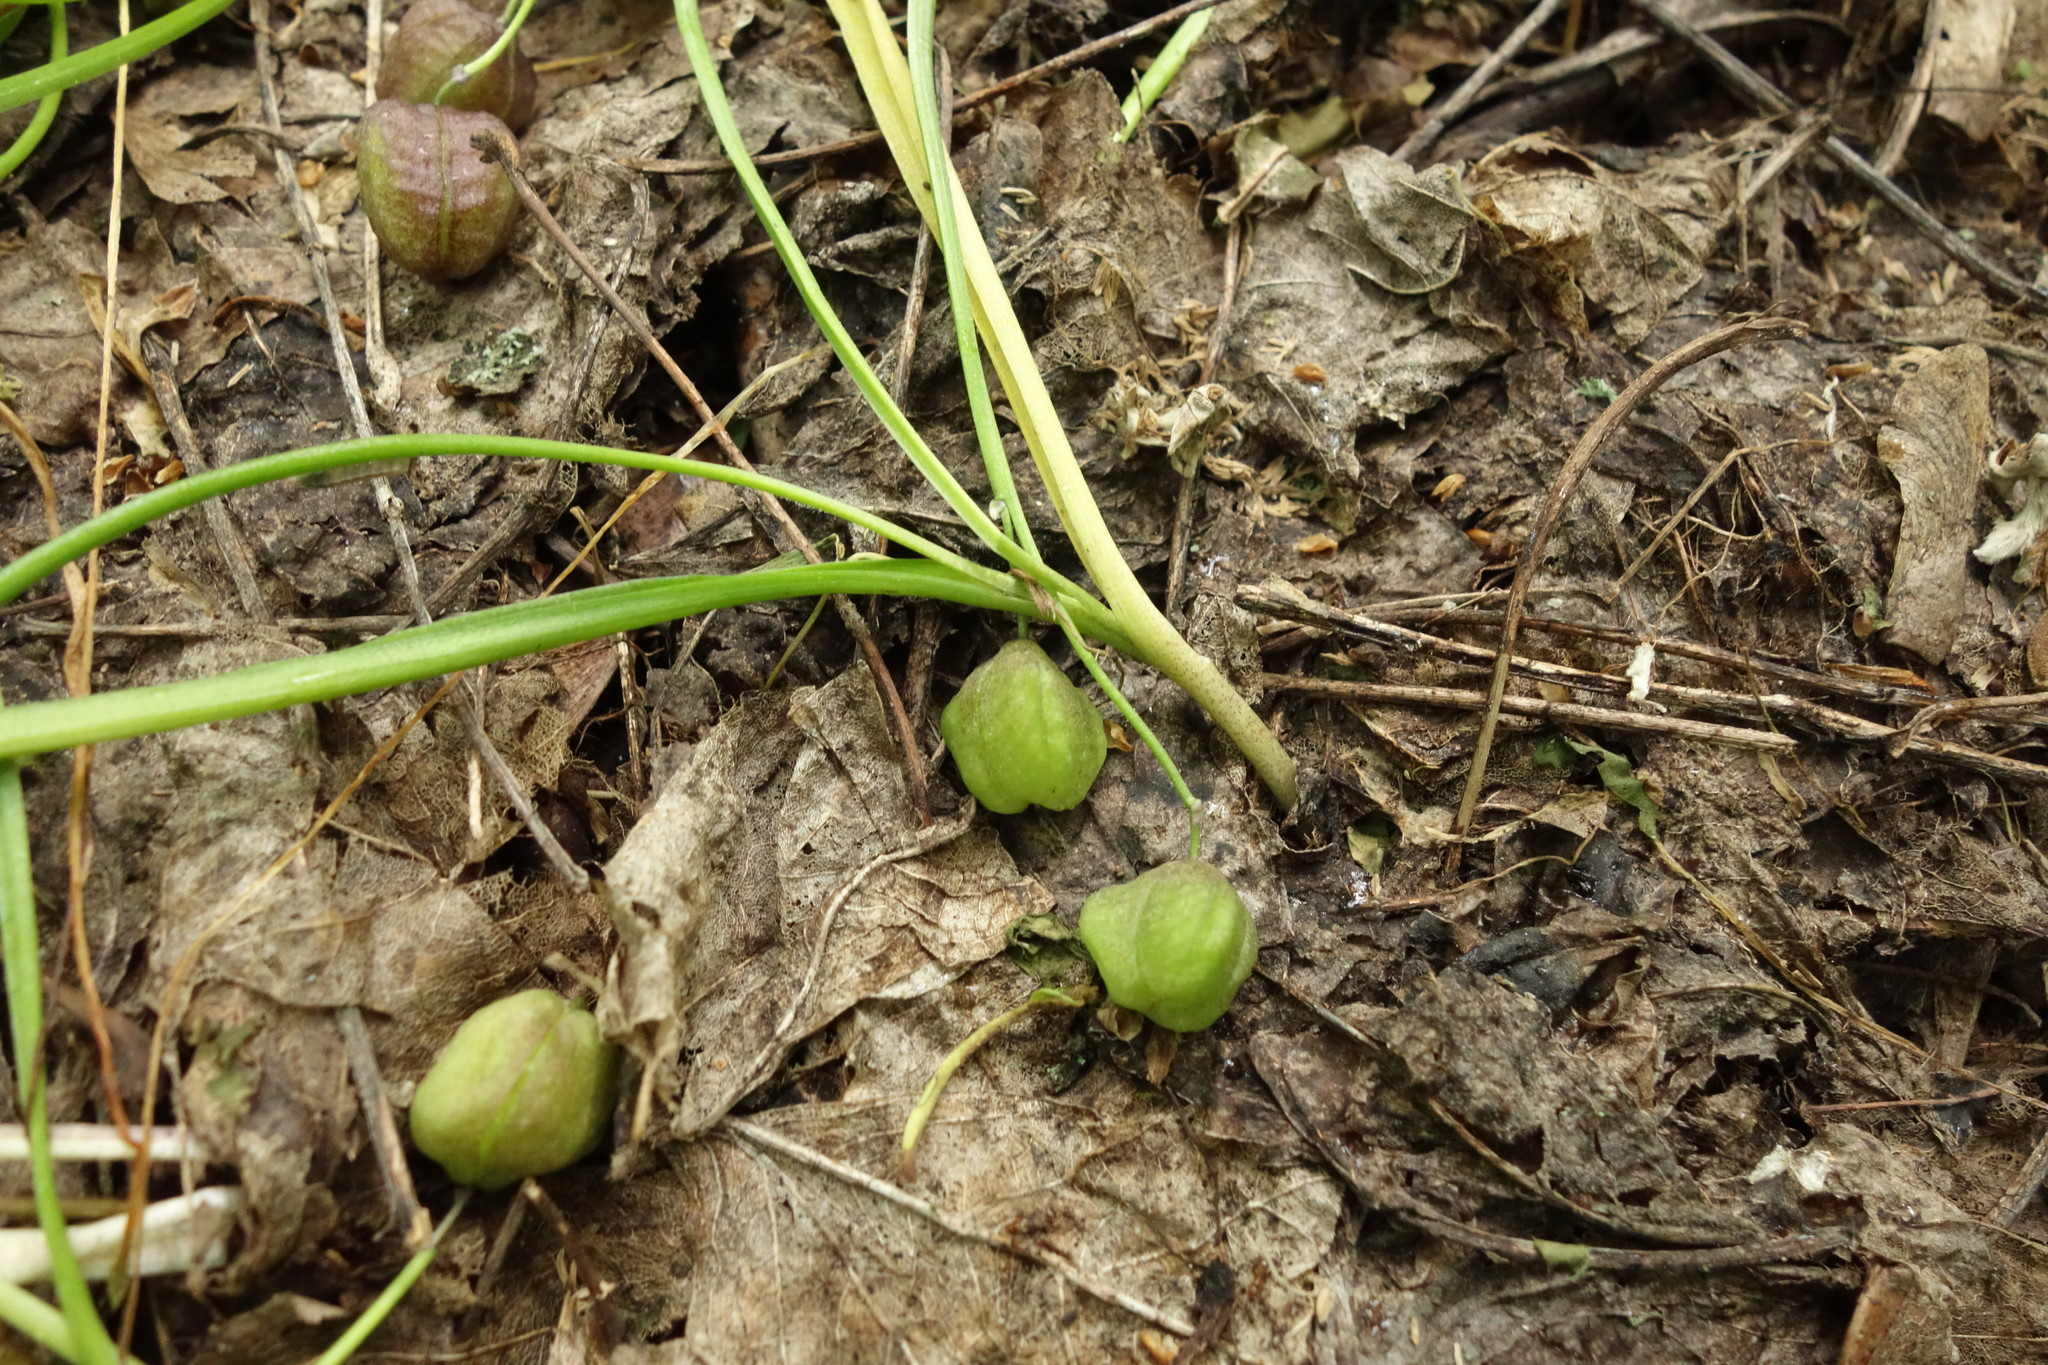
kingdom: Plantae
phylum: Tracheophyta
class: Liliopsida
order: Asparagales
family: Asparagaceae
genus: Scilla
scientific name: Scilla siberica
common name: Siberian squill
